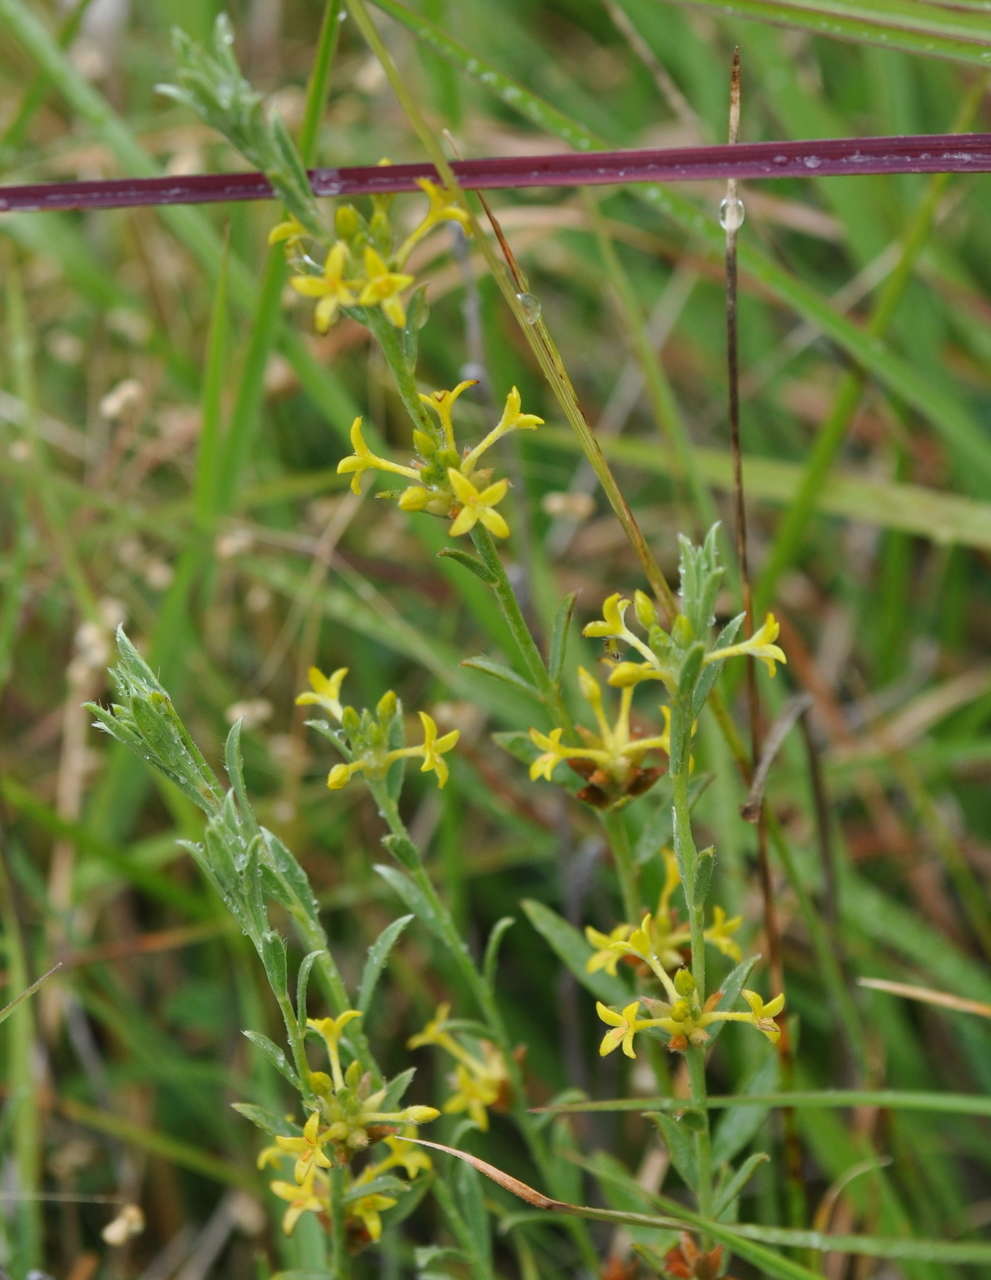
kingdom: Plantae
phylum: Tracheophyta
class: Magnoliopsida
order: Malvales
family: Thymelaeaceae
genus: Pimelea
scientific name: Pimelea curviflora
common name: Curved riceflower
